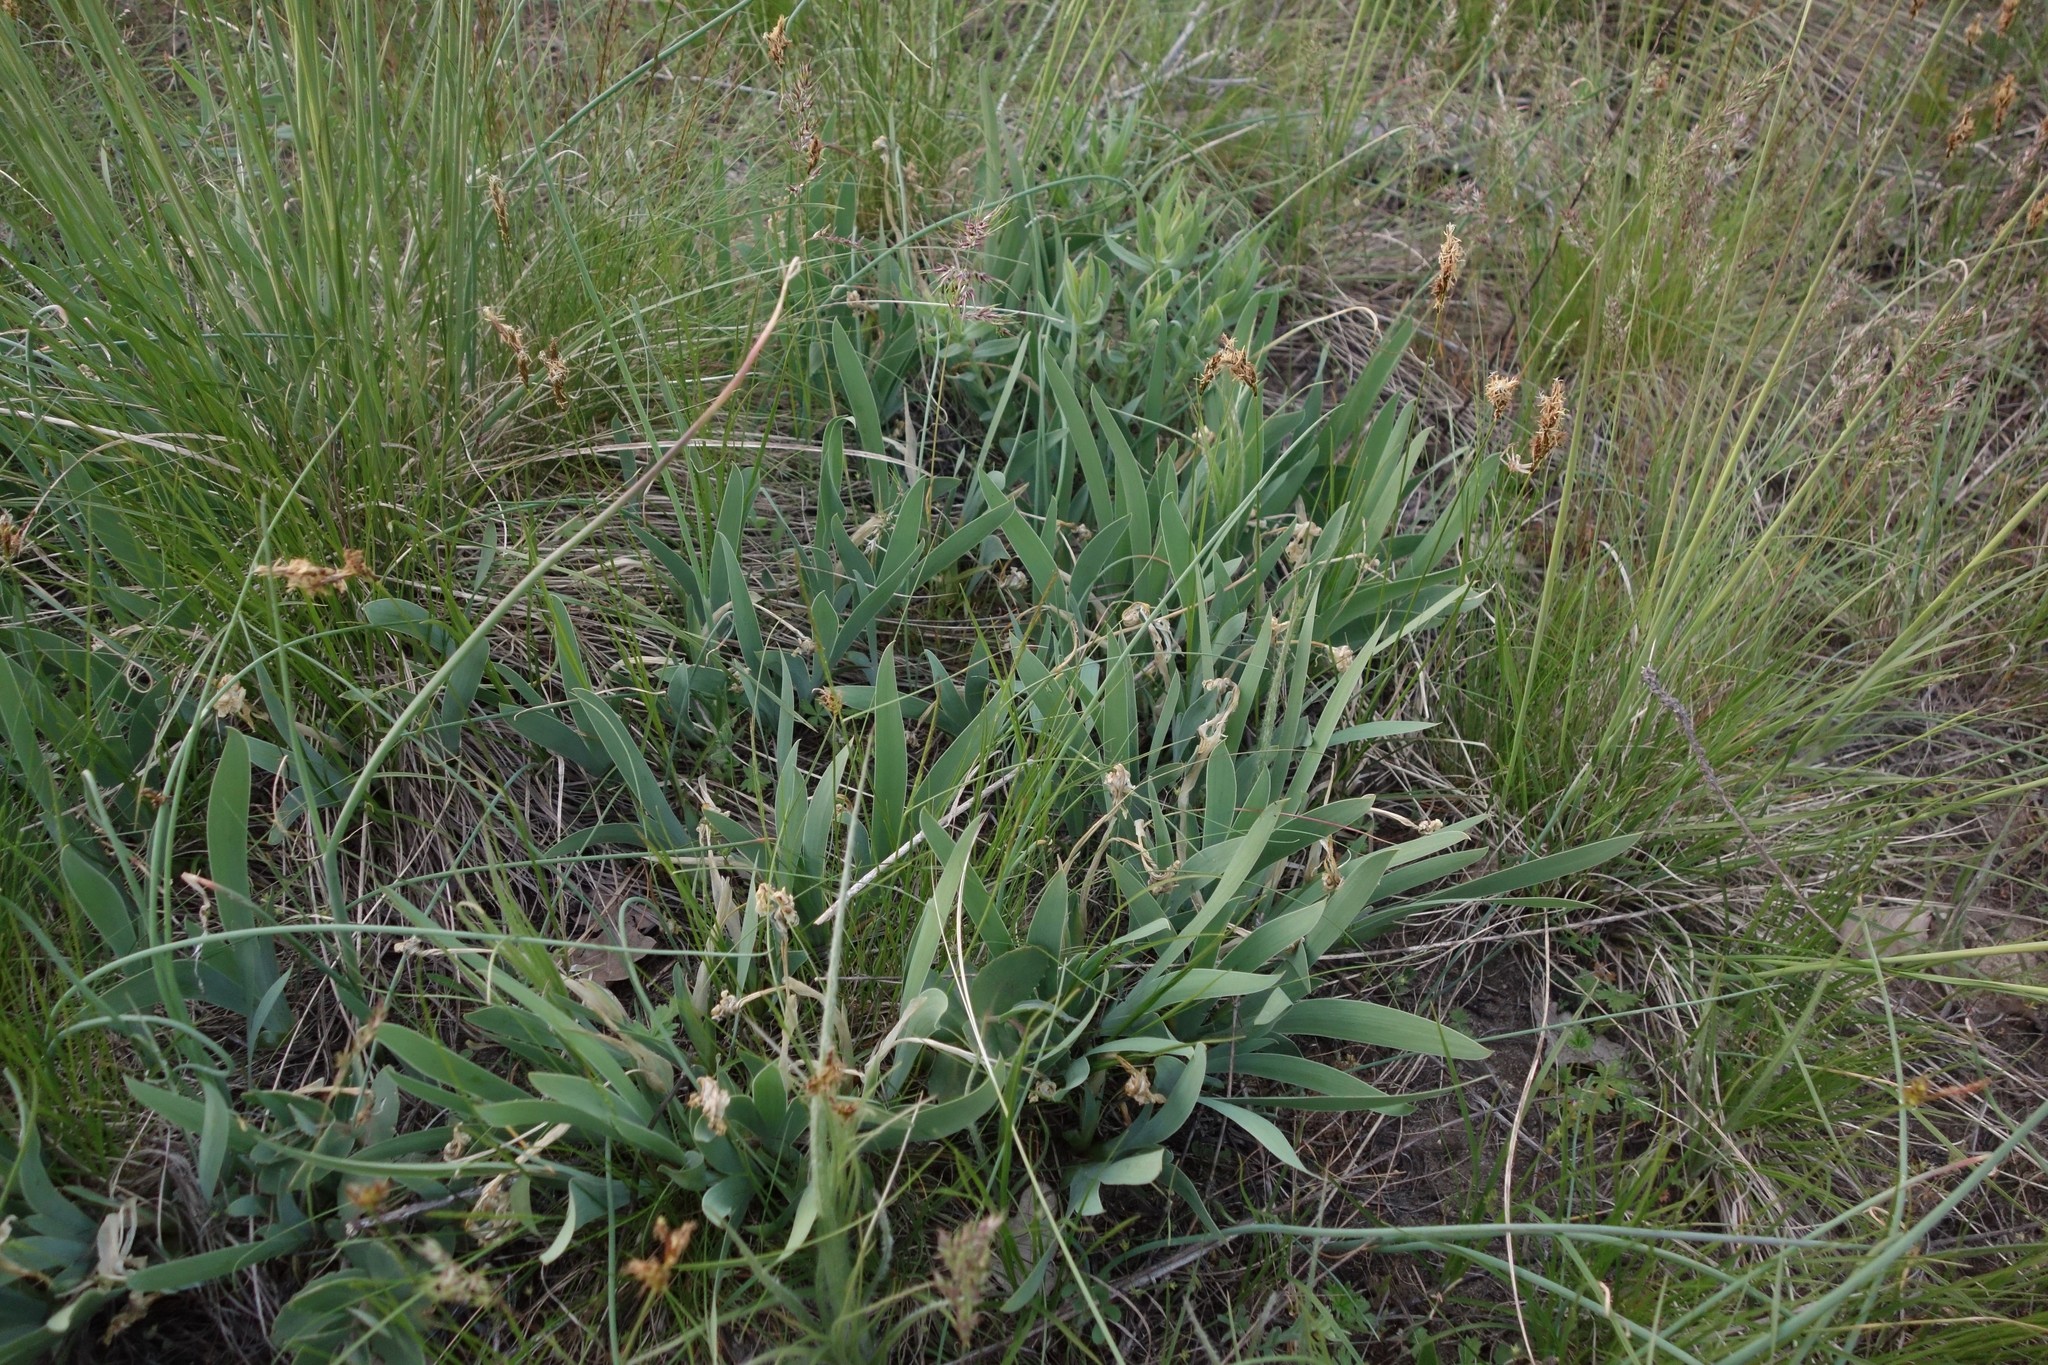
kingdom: Plantae
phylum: Tracheophyta
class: Liliopsida
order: Asparagales
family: Iridaceae
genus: Iris
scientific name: Iris pumila
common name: Dwarf iris
